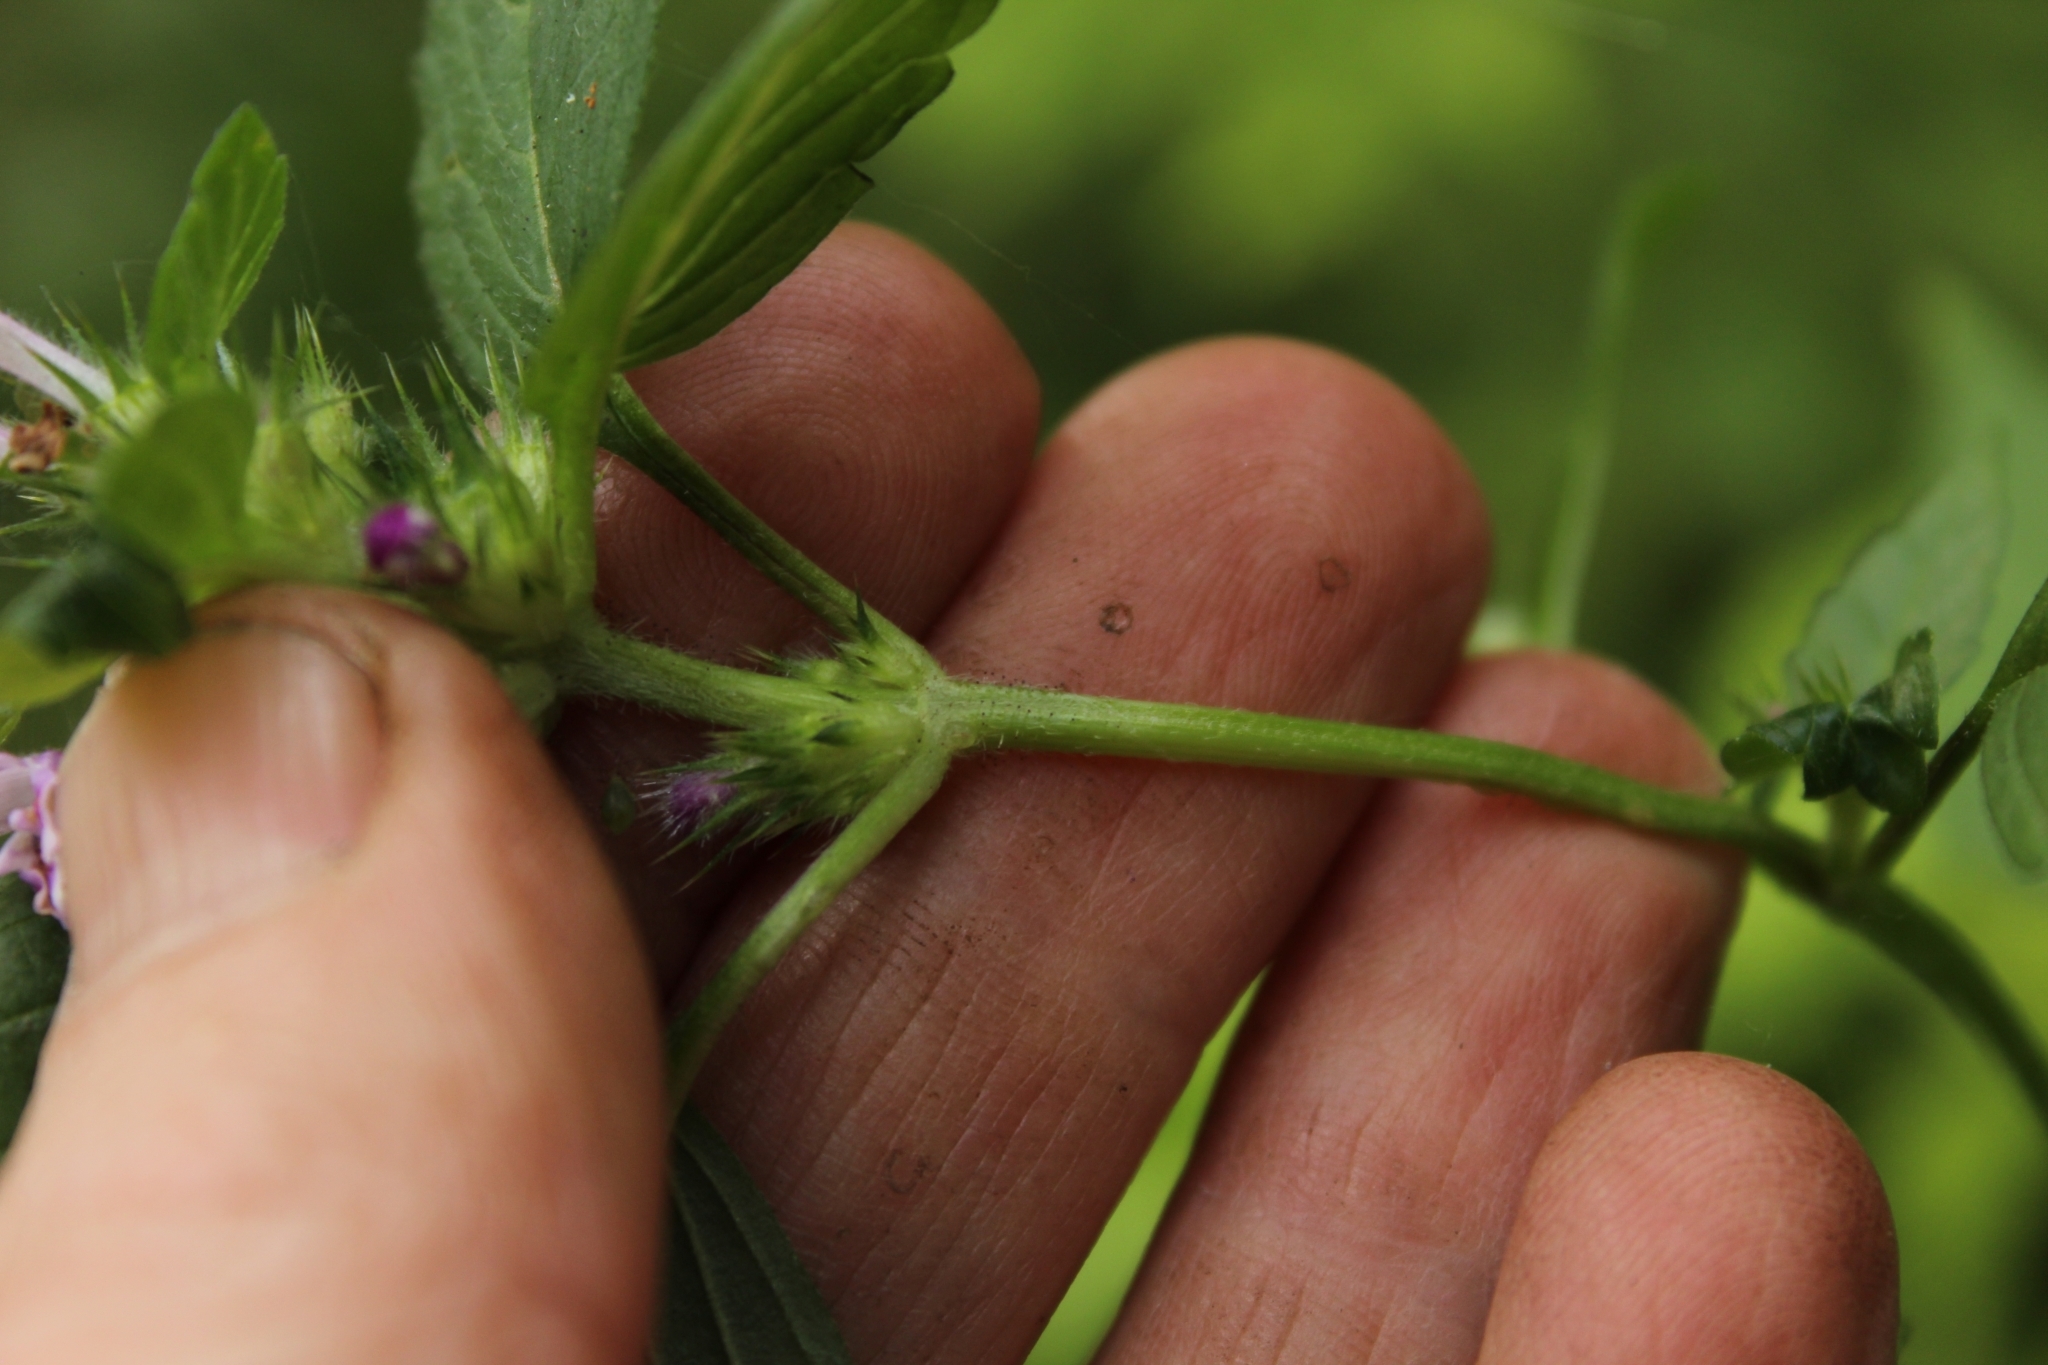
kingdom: Plantae
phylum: Tracheophyta
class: Magnoliopsida
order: Lamiales
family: Lamiaceae
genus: Galeopsis
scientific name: Galeopsis tetrahit
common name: Common hemp-nettle
